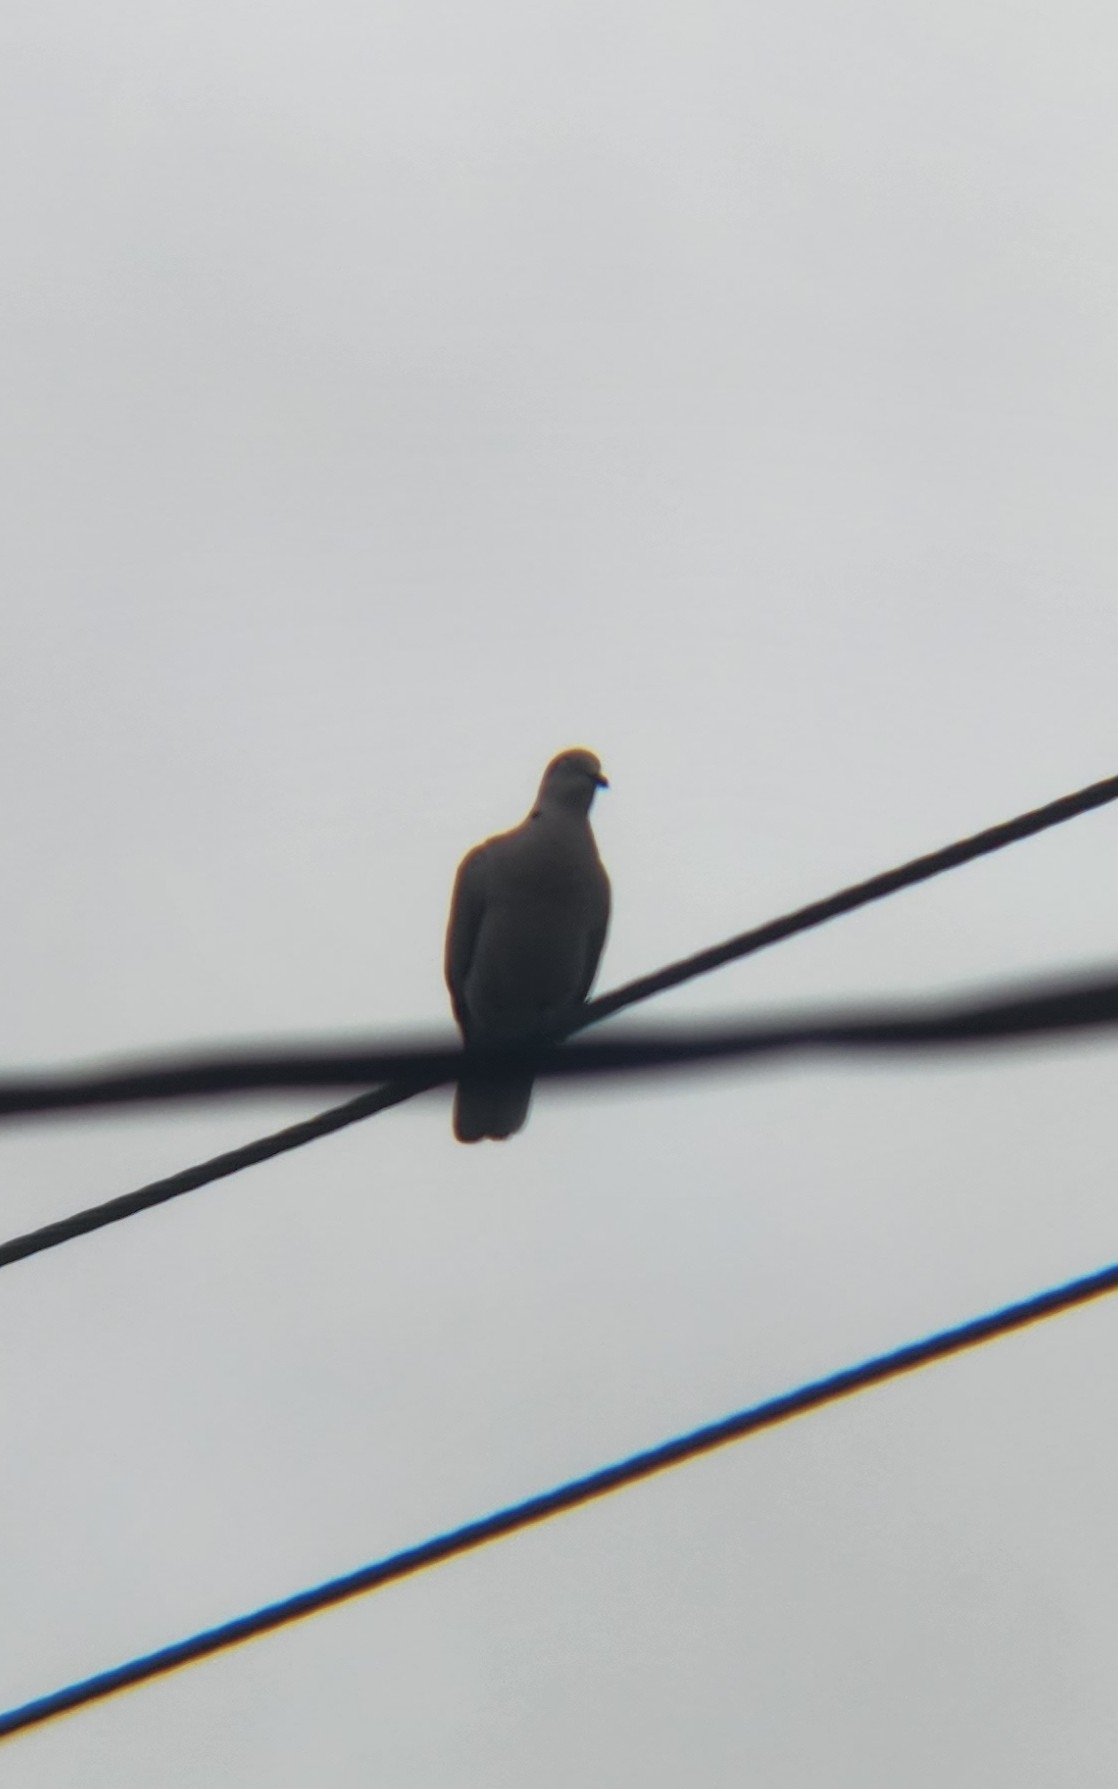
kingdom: Animalia
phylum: Chordata
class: Aves
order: Columbiformes
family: Columbidae
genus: Streptopelia
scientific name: Streptopelia decaocto
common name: Eurasian collared dove
